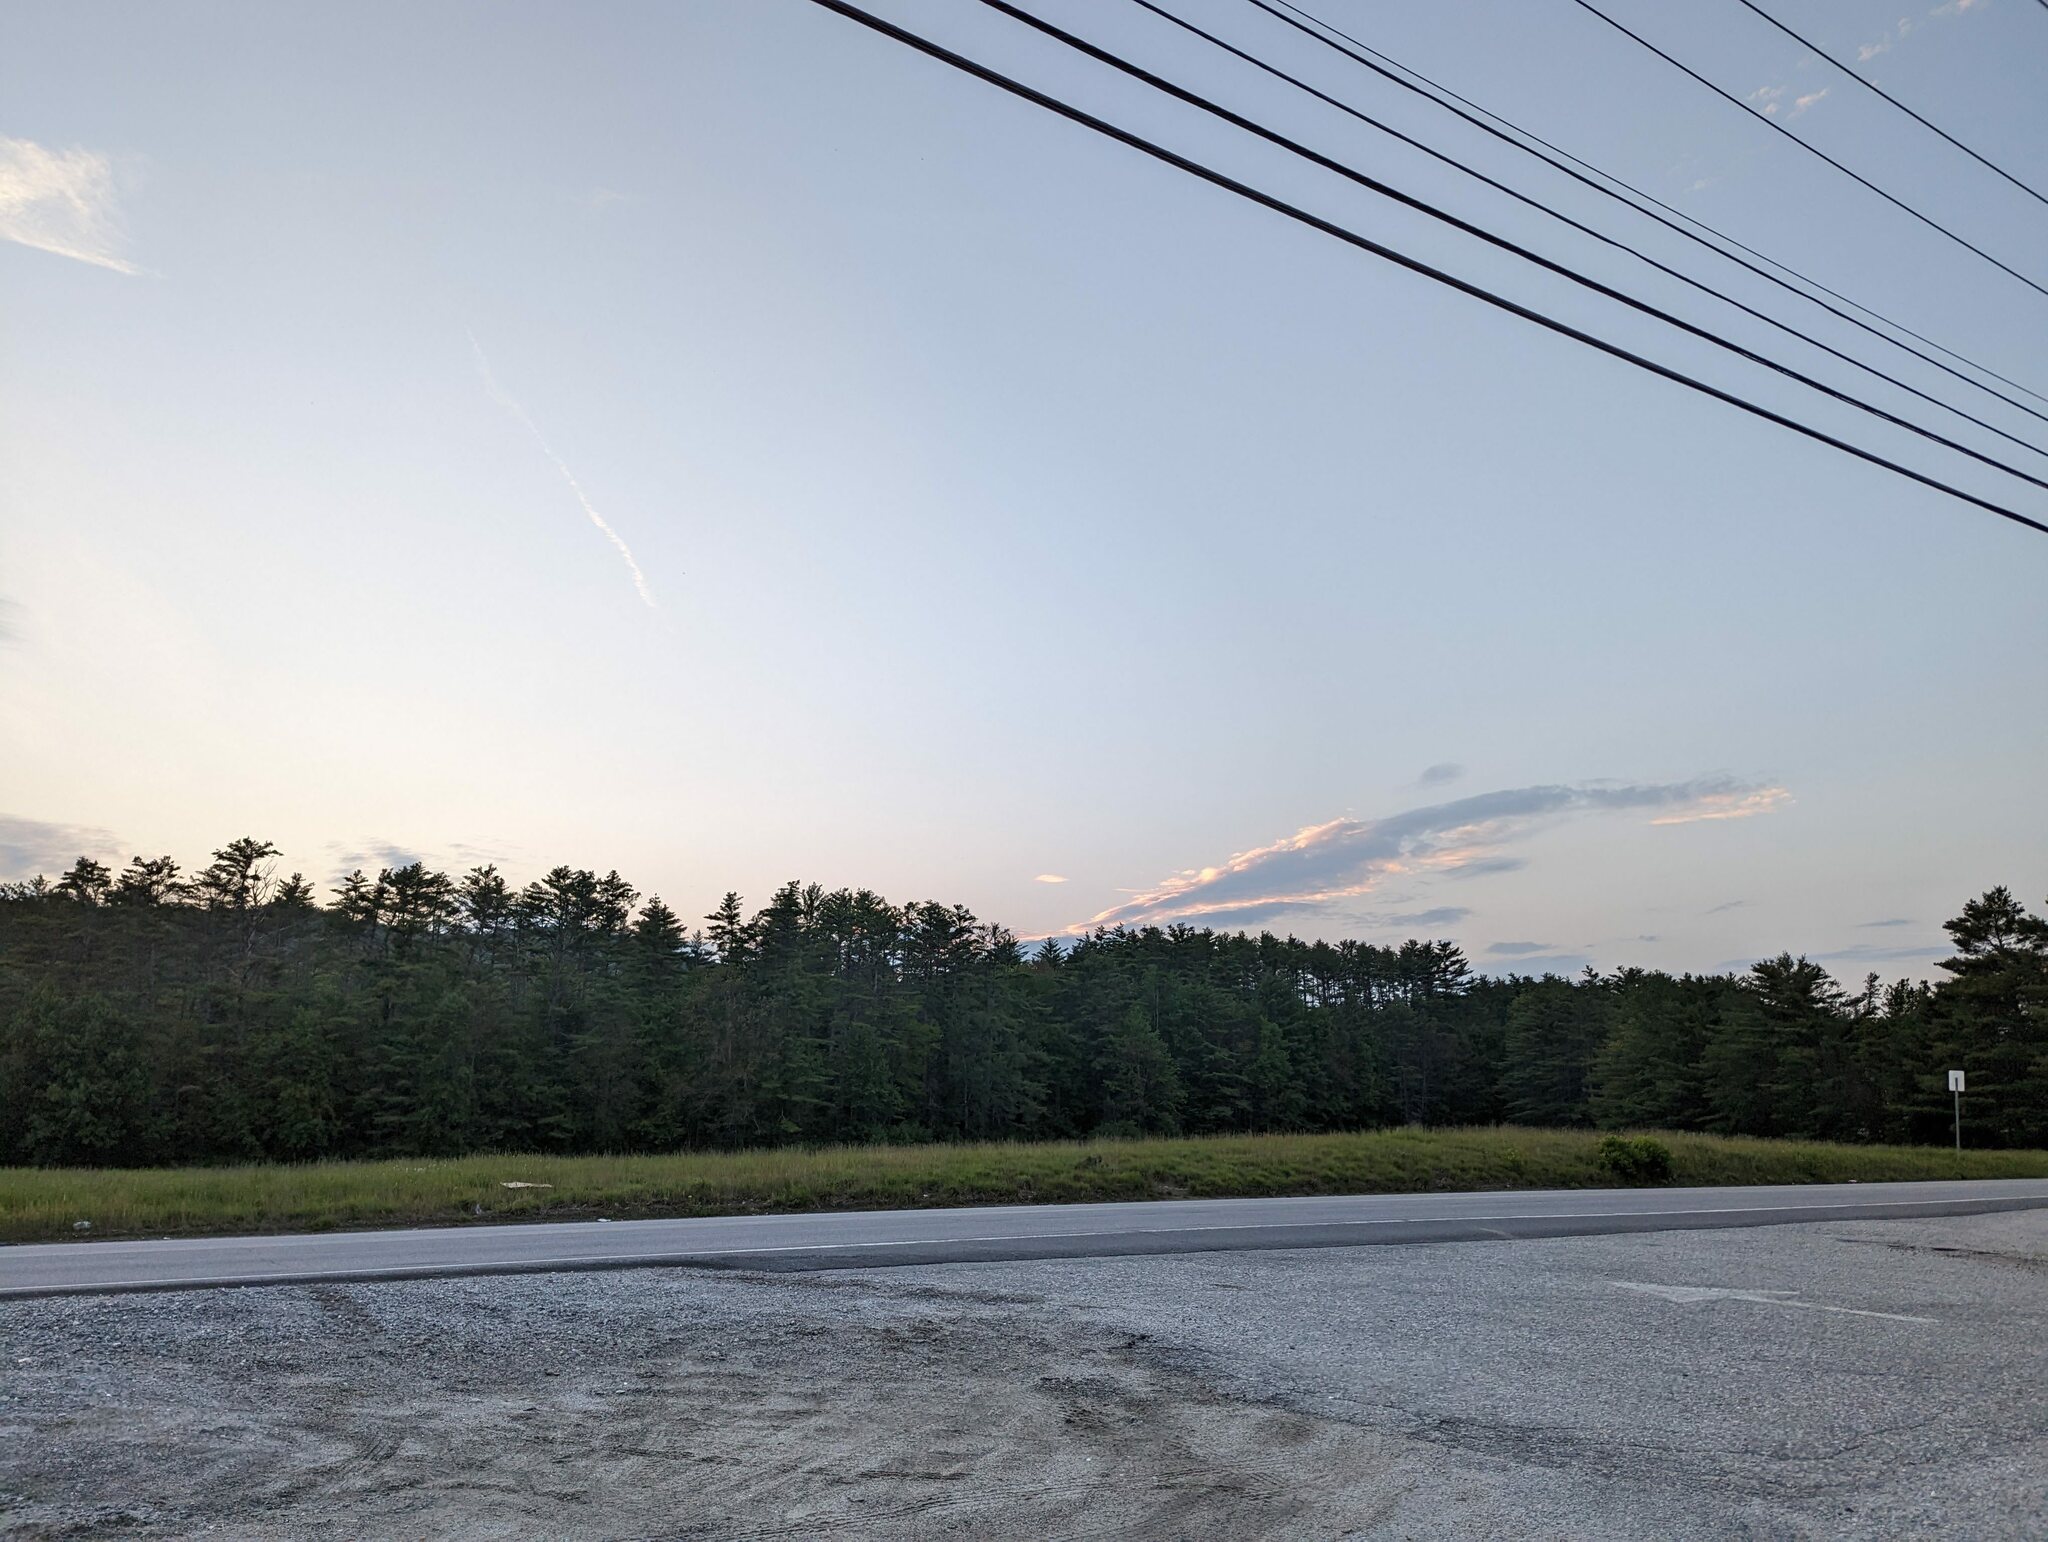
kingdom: Plantae
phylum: Tracheophyta
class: Pinopsida
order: Pinales
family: Pinaceae
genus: Pinus
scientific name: Pinus strobus
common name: Weymouth pine
